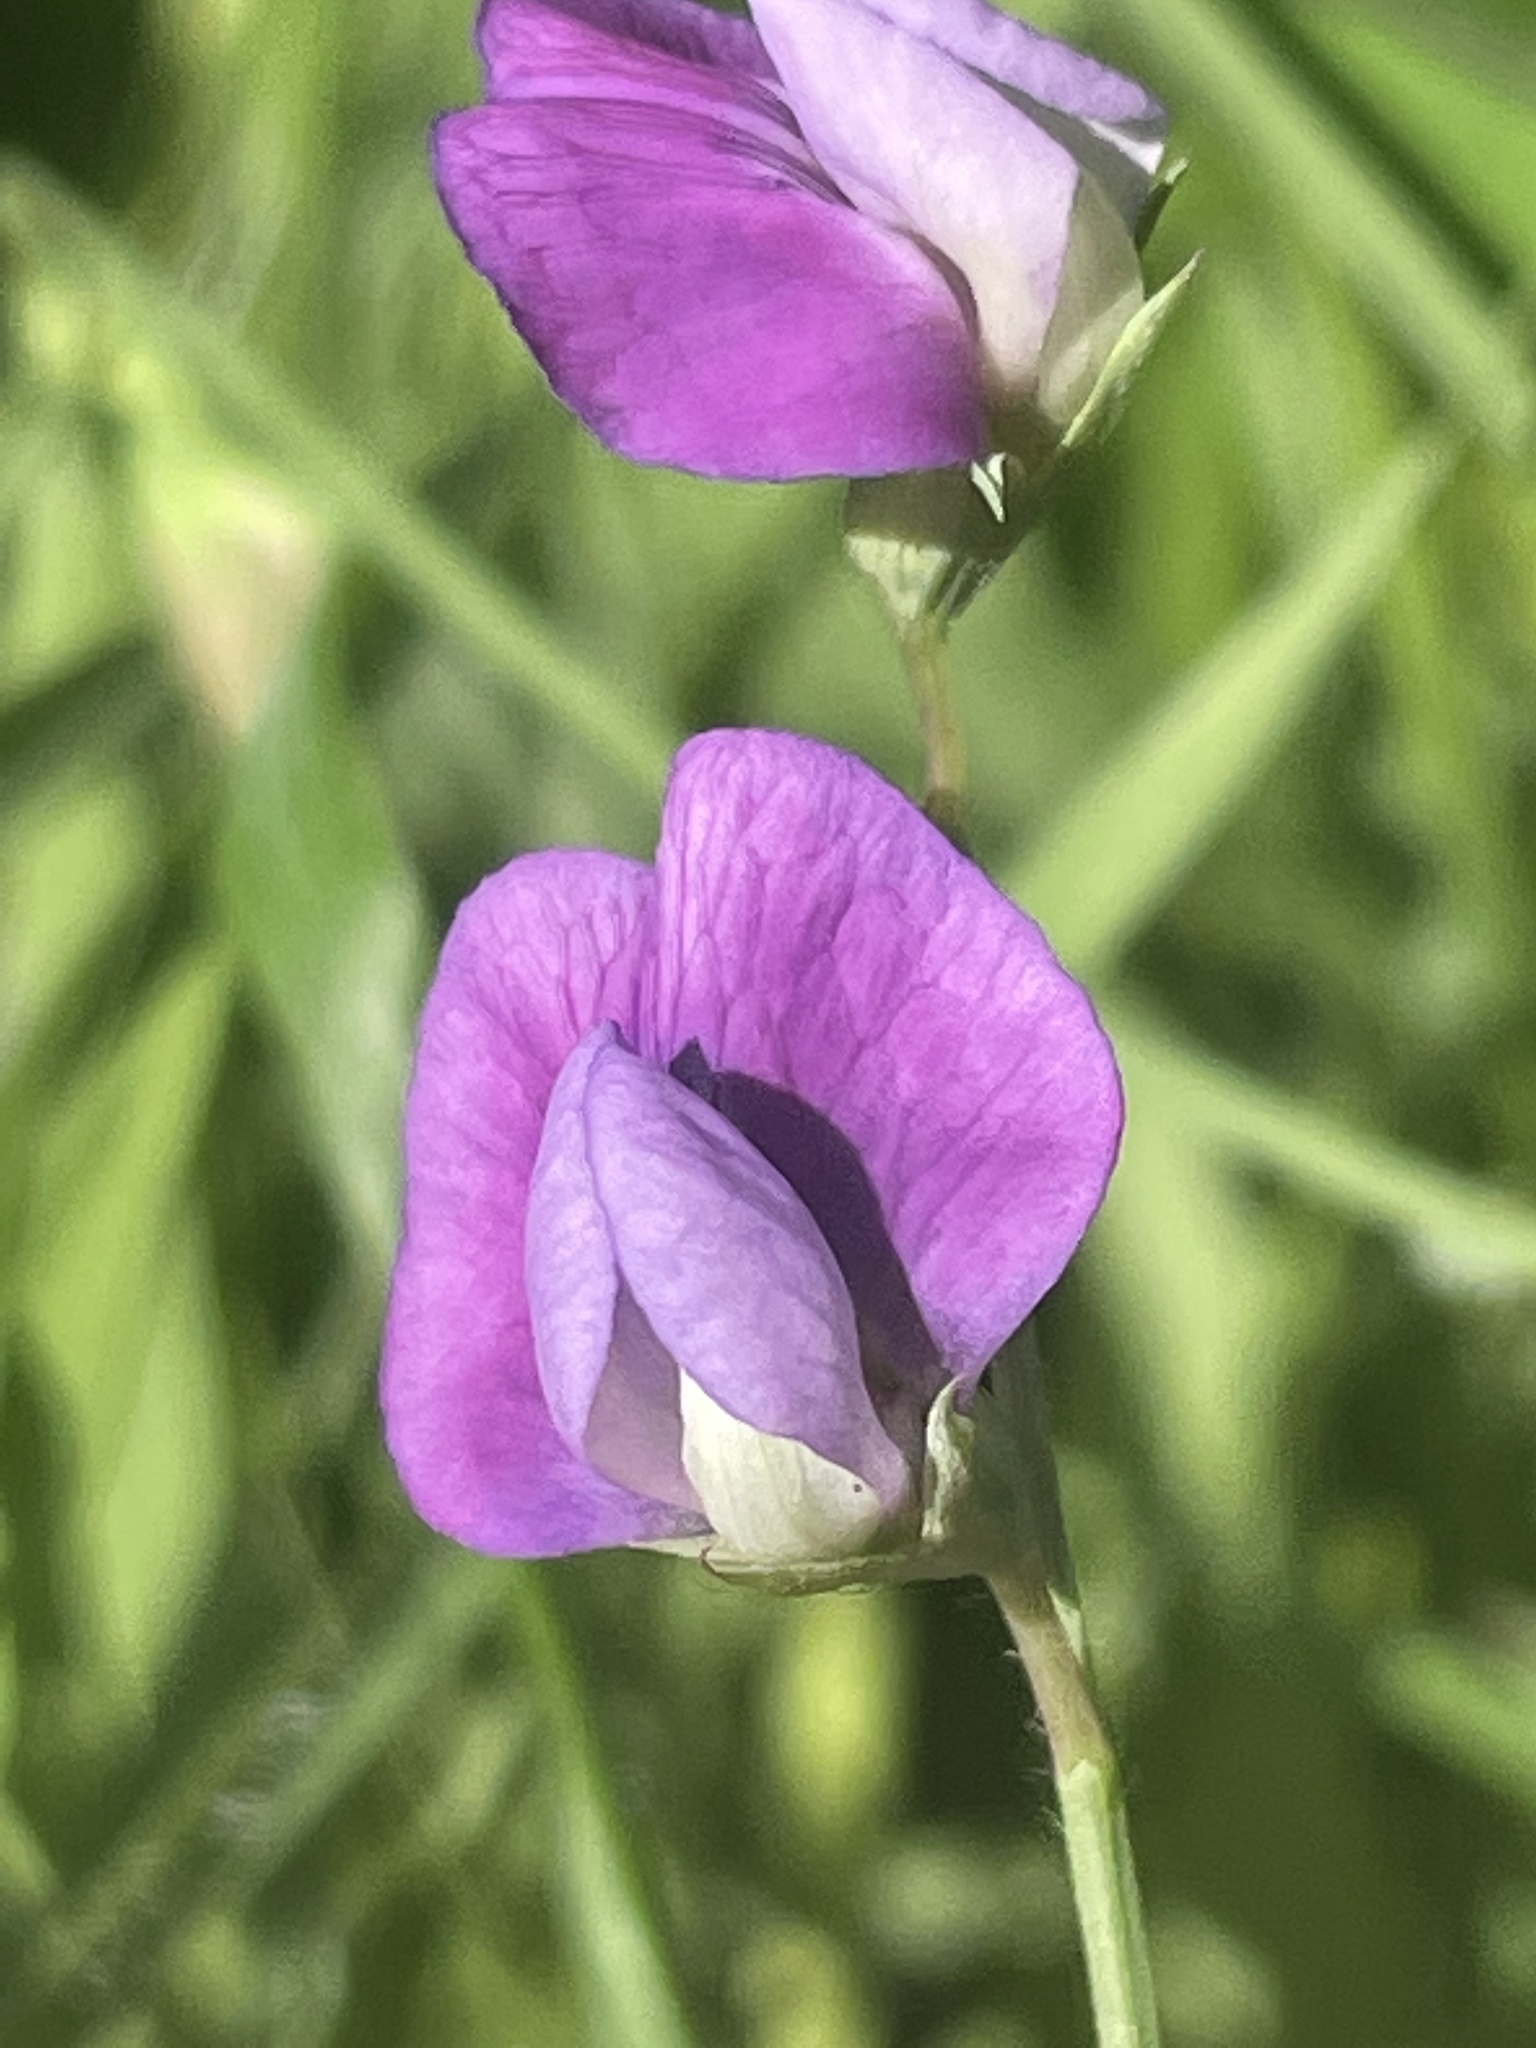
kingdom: Plantae
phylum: Tracheophyta
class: Magnoliopsida
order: Fabales
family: Fabaceae
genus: Lathyrus
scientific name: Lathyrus hirsutus
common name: Hairy vetchling
